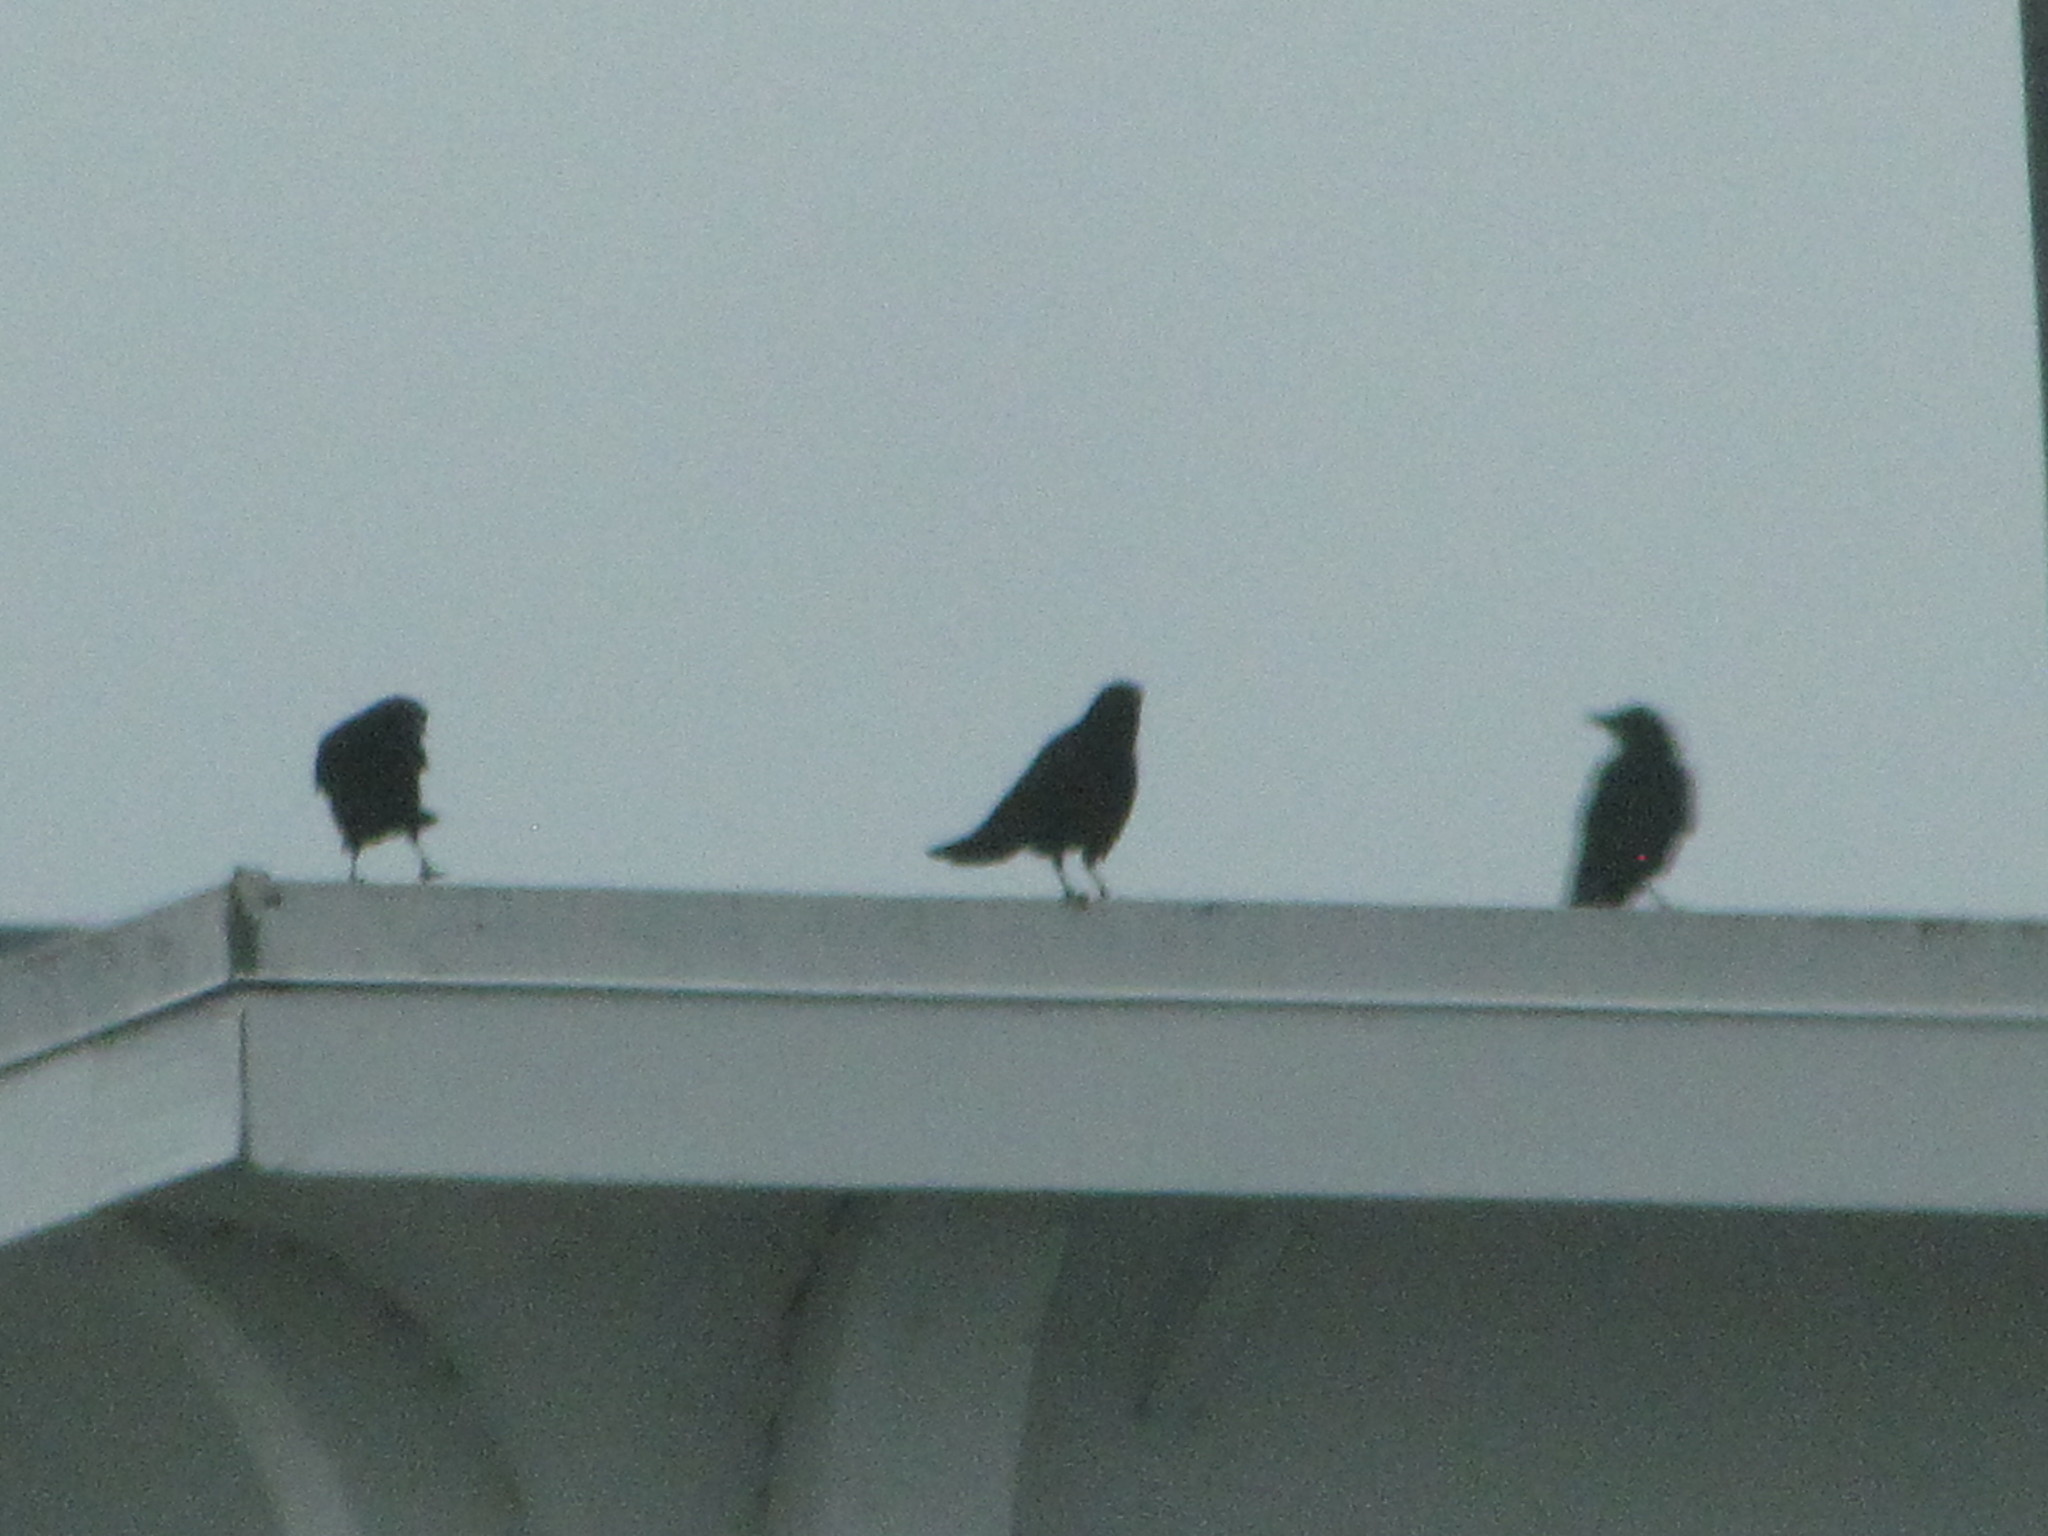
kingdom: Animalia
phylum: Chordata
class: Aves
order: Passeriformes
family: Corvidae
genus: Corvus
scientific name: Corvus brachyrhynchos
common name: American crow
